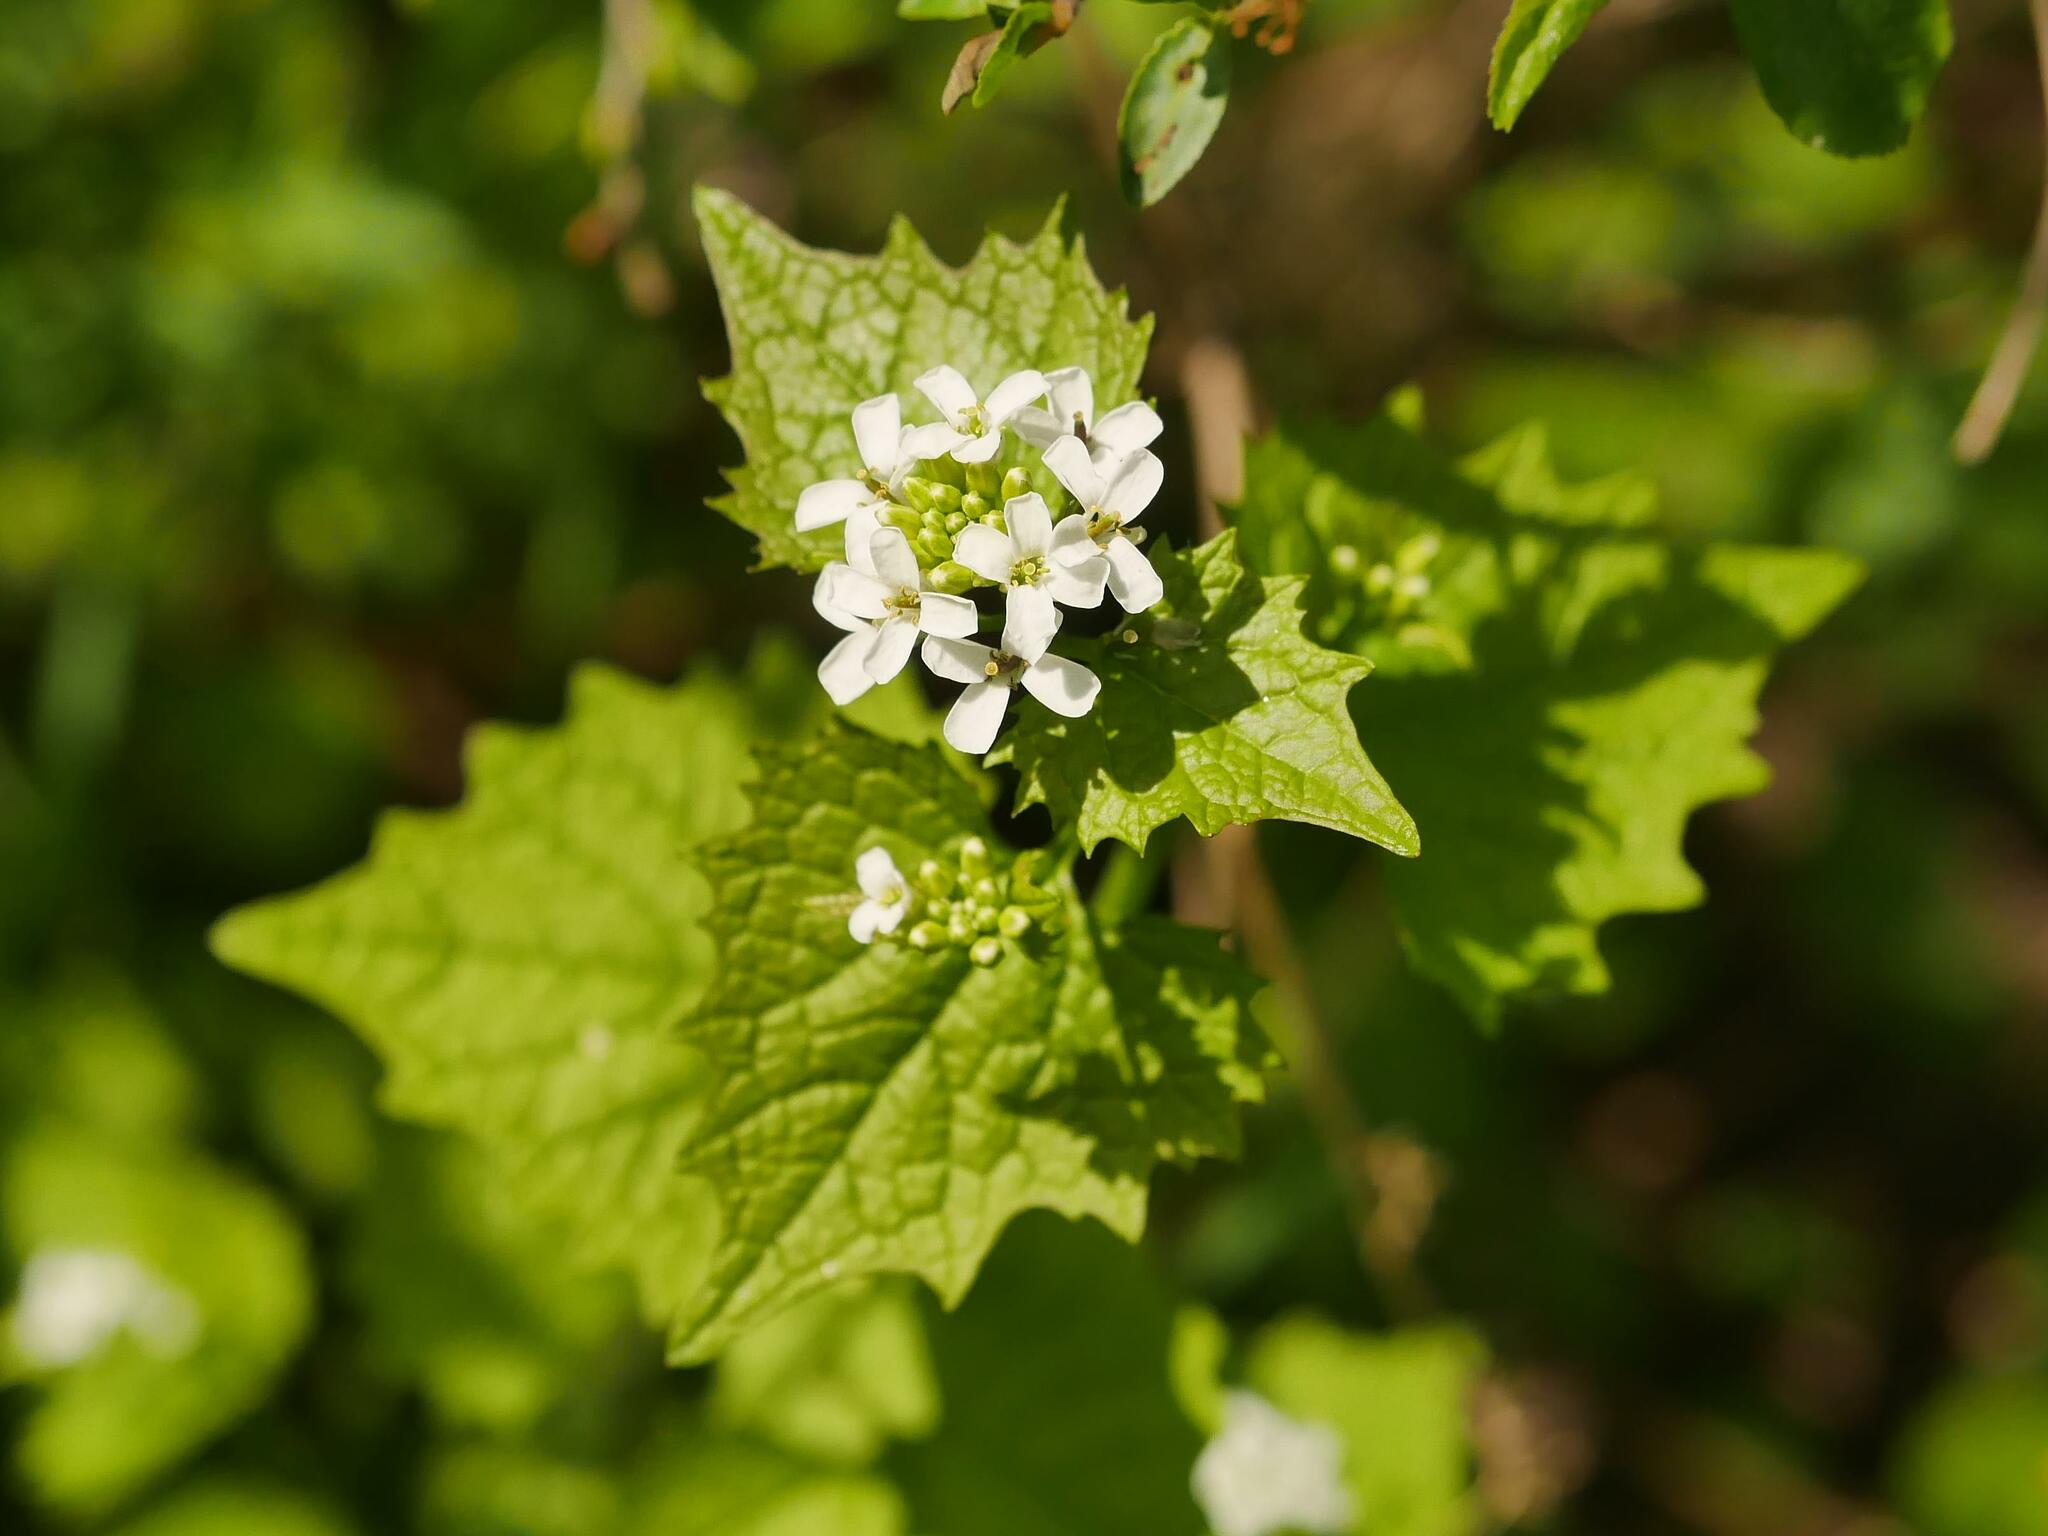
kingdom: Plantae
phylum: Tracheophyta
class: Magnoliopsida
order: Brassicales
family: Brassicaceae
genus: Alliaria
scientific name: Alliaria petiolata
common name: Garlic mustard
